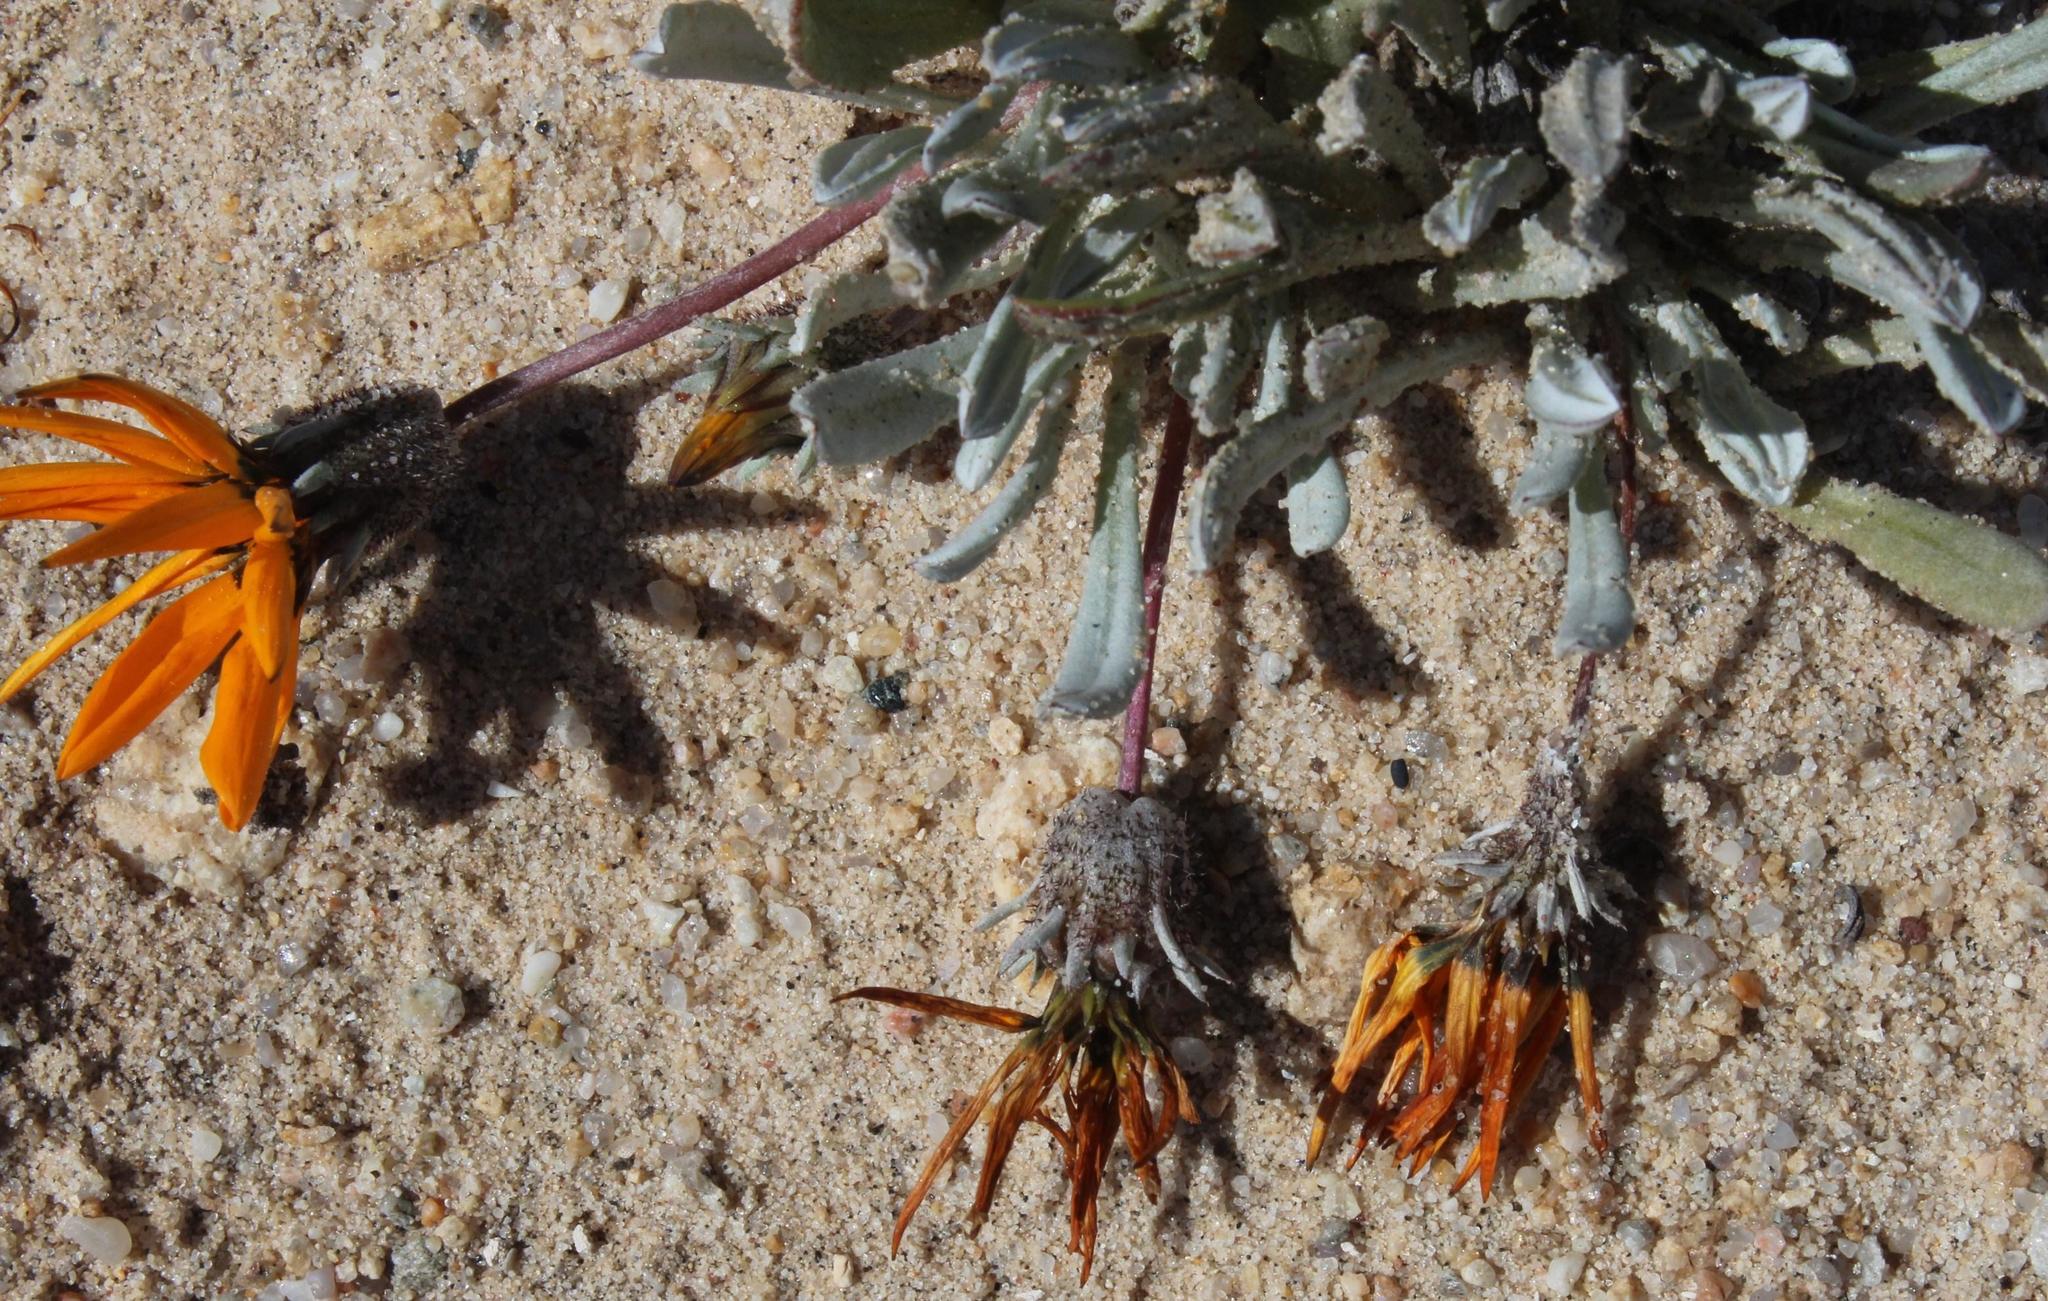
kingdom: Plantae
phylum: Tracheophyta
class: Magnoliopsida
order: Asterales
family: Asteraceae
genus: Gazania
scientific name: Gazania splendidissima
